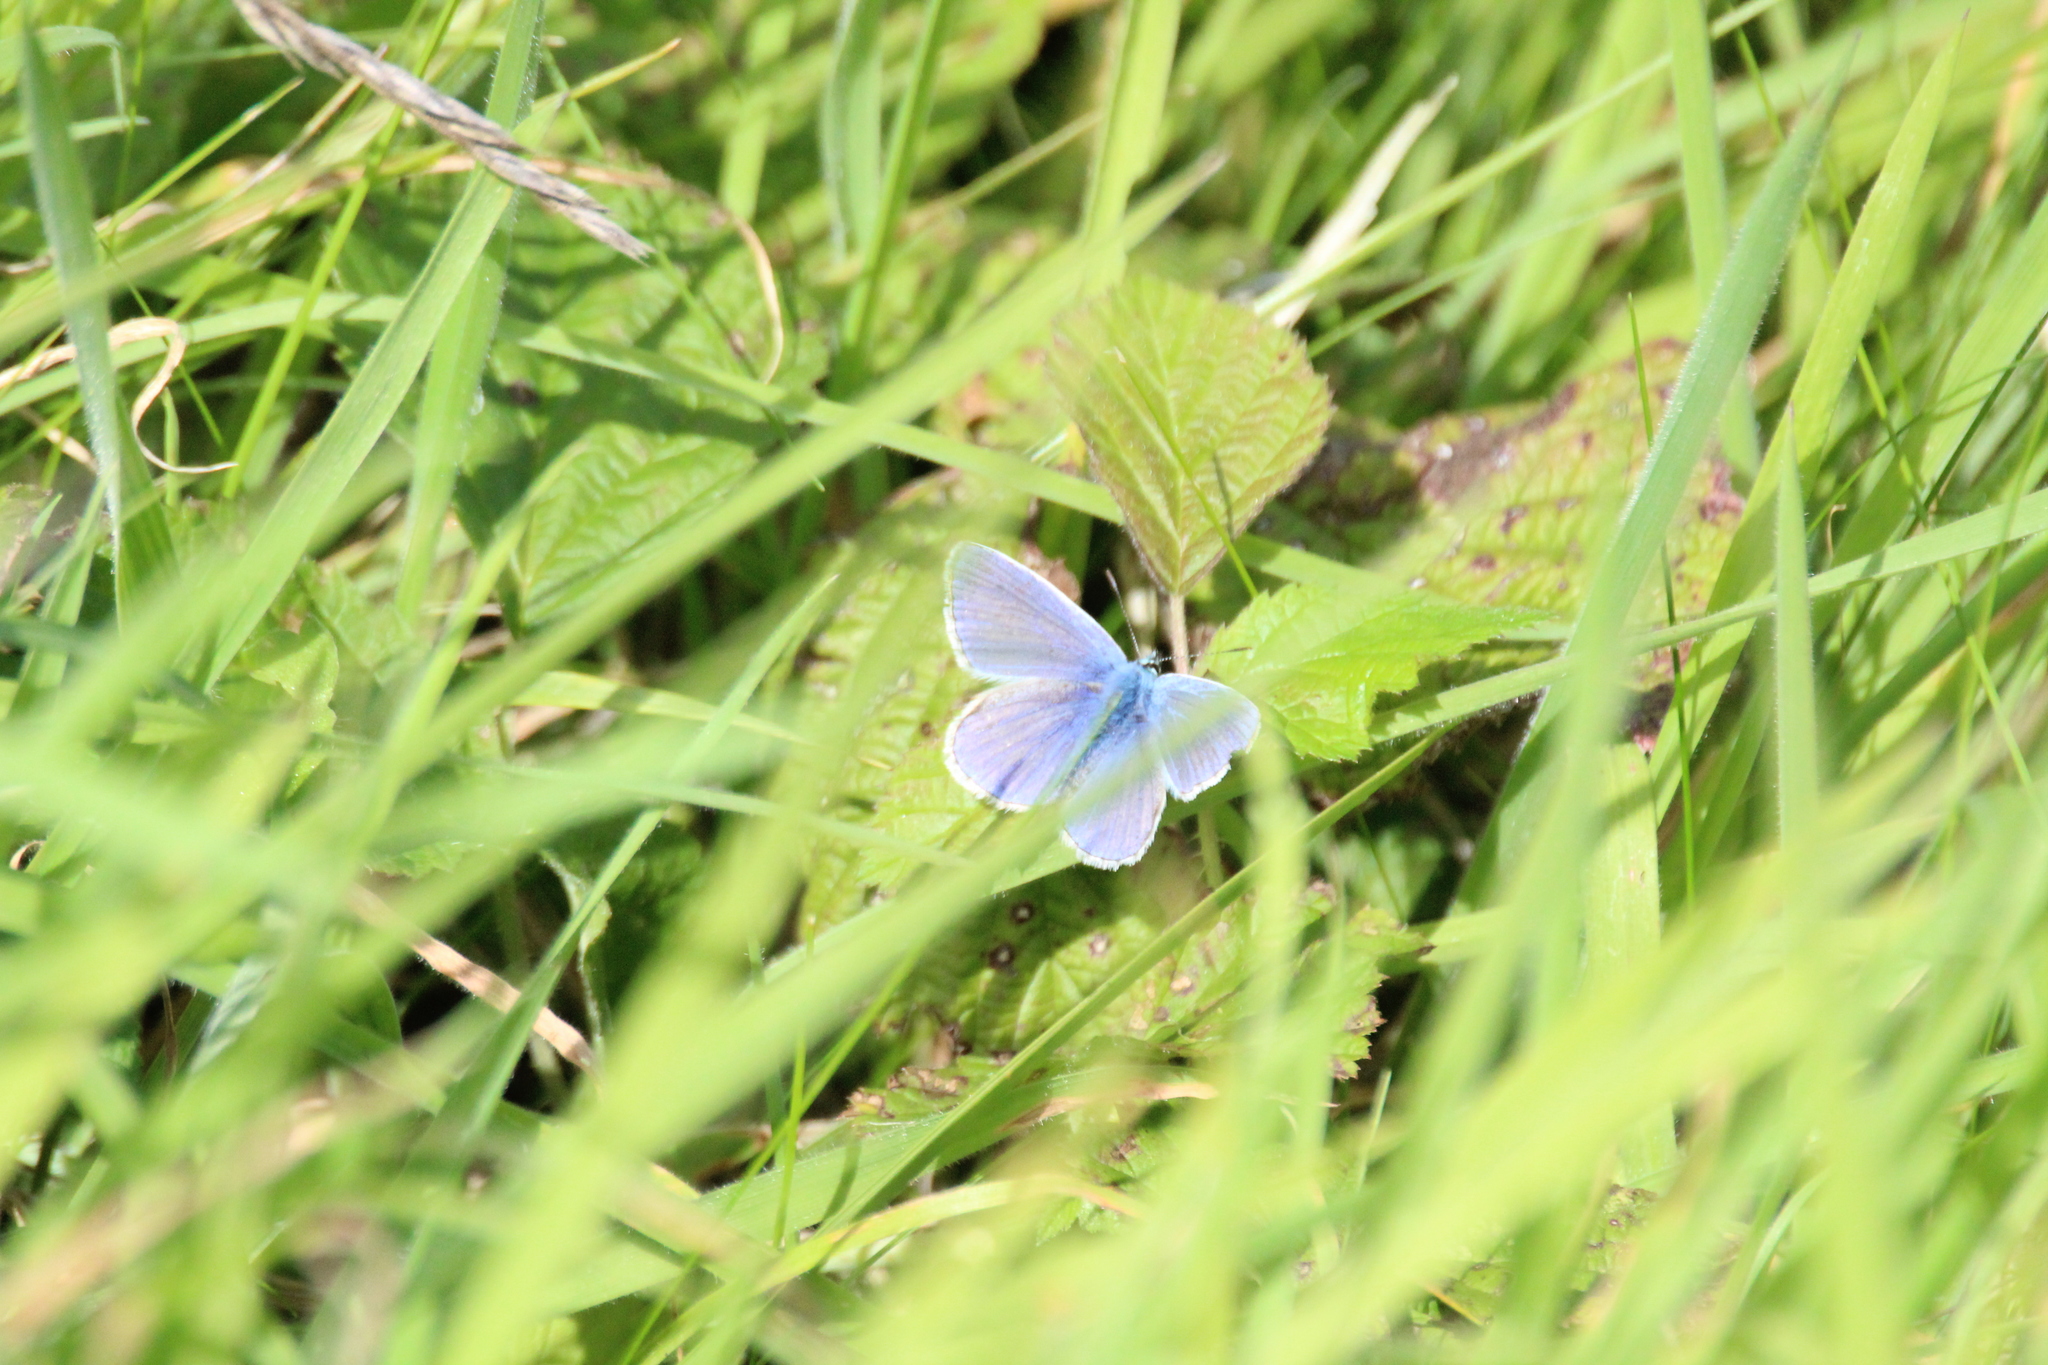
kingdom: Animalia
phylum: Arthropoda
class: Insecta
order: Lepidoptera
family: Lycaenidae
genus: Polyommatus
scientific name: Polyommatus icarus
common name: Common blue
